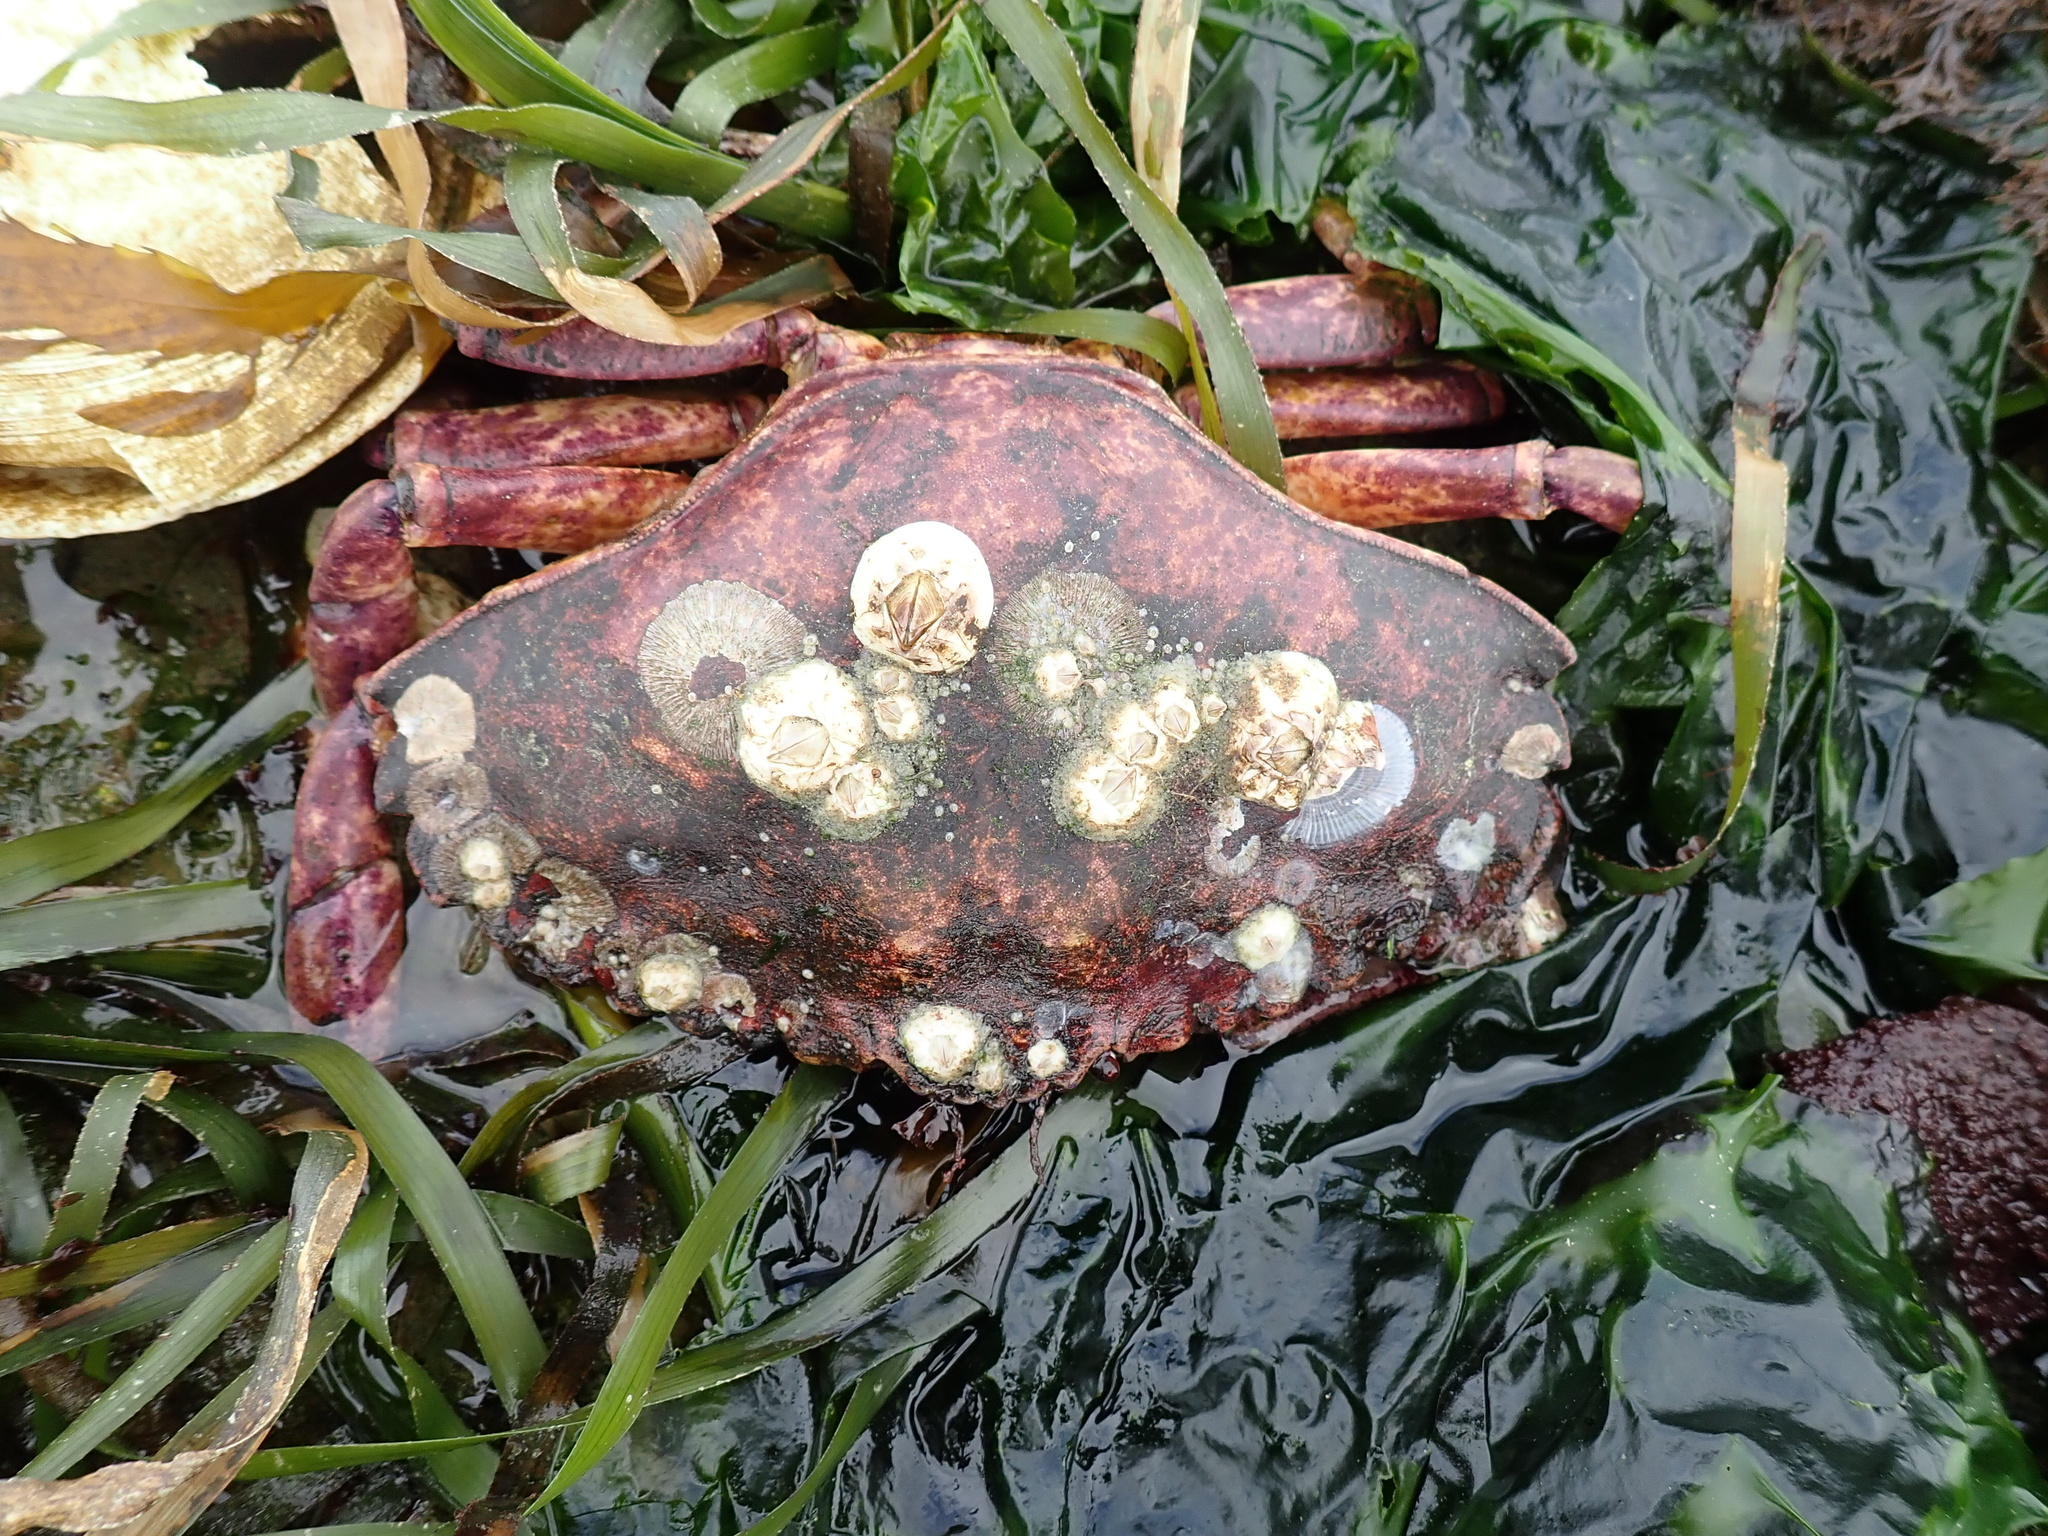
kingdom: Animalia
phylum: Arthropoda
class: Malacostraca
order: Decapoda
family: Cancridae
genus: Cancer
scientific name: Cancer productus
